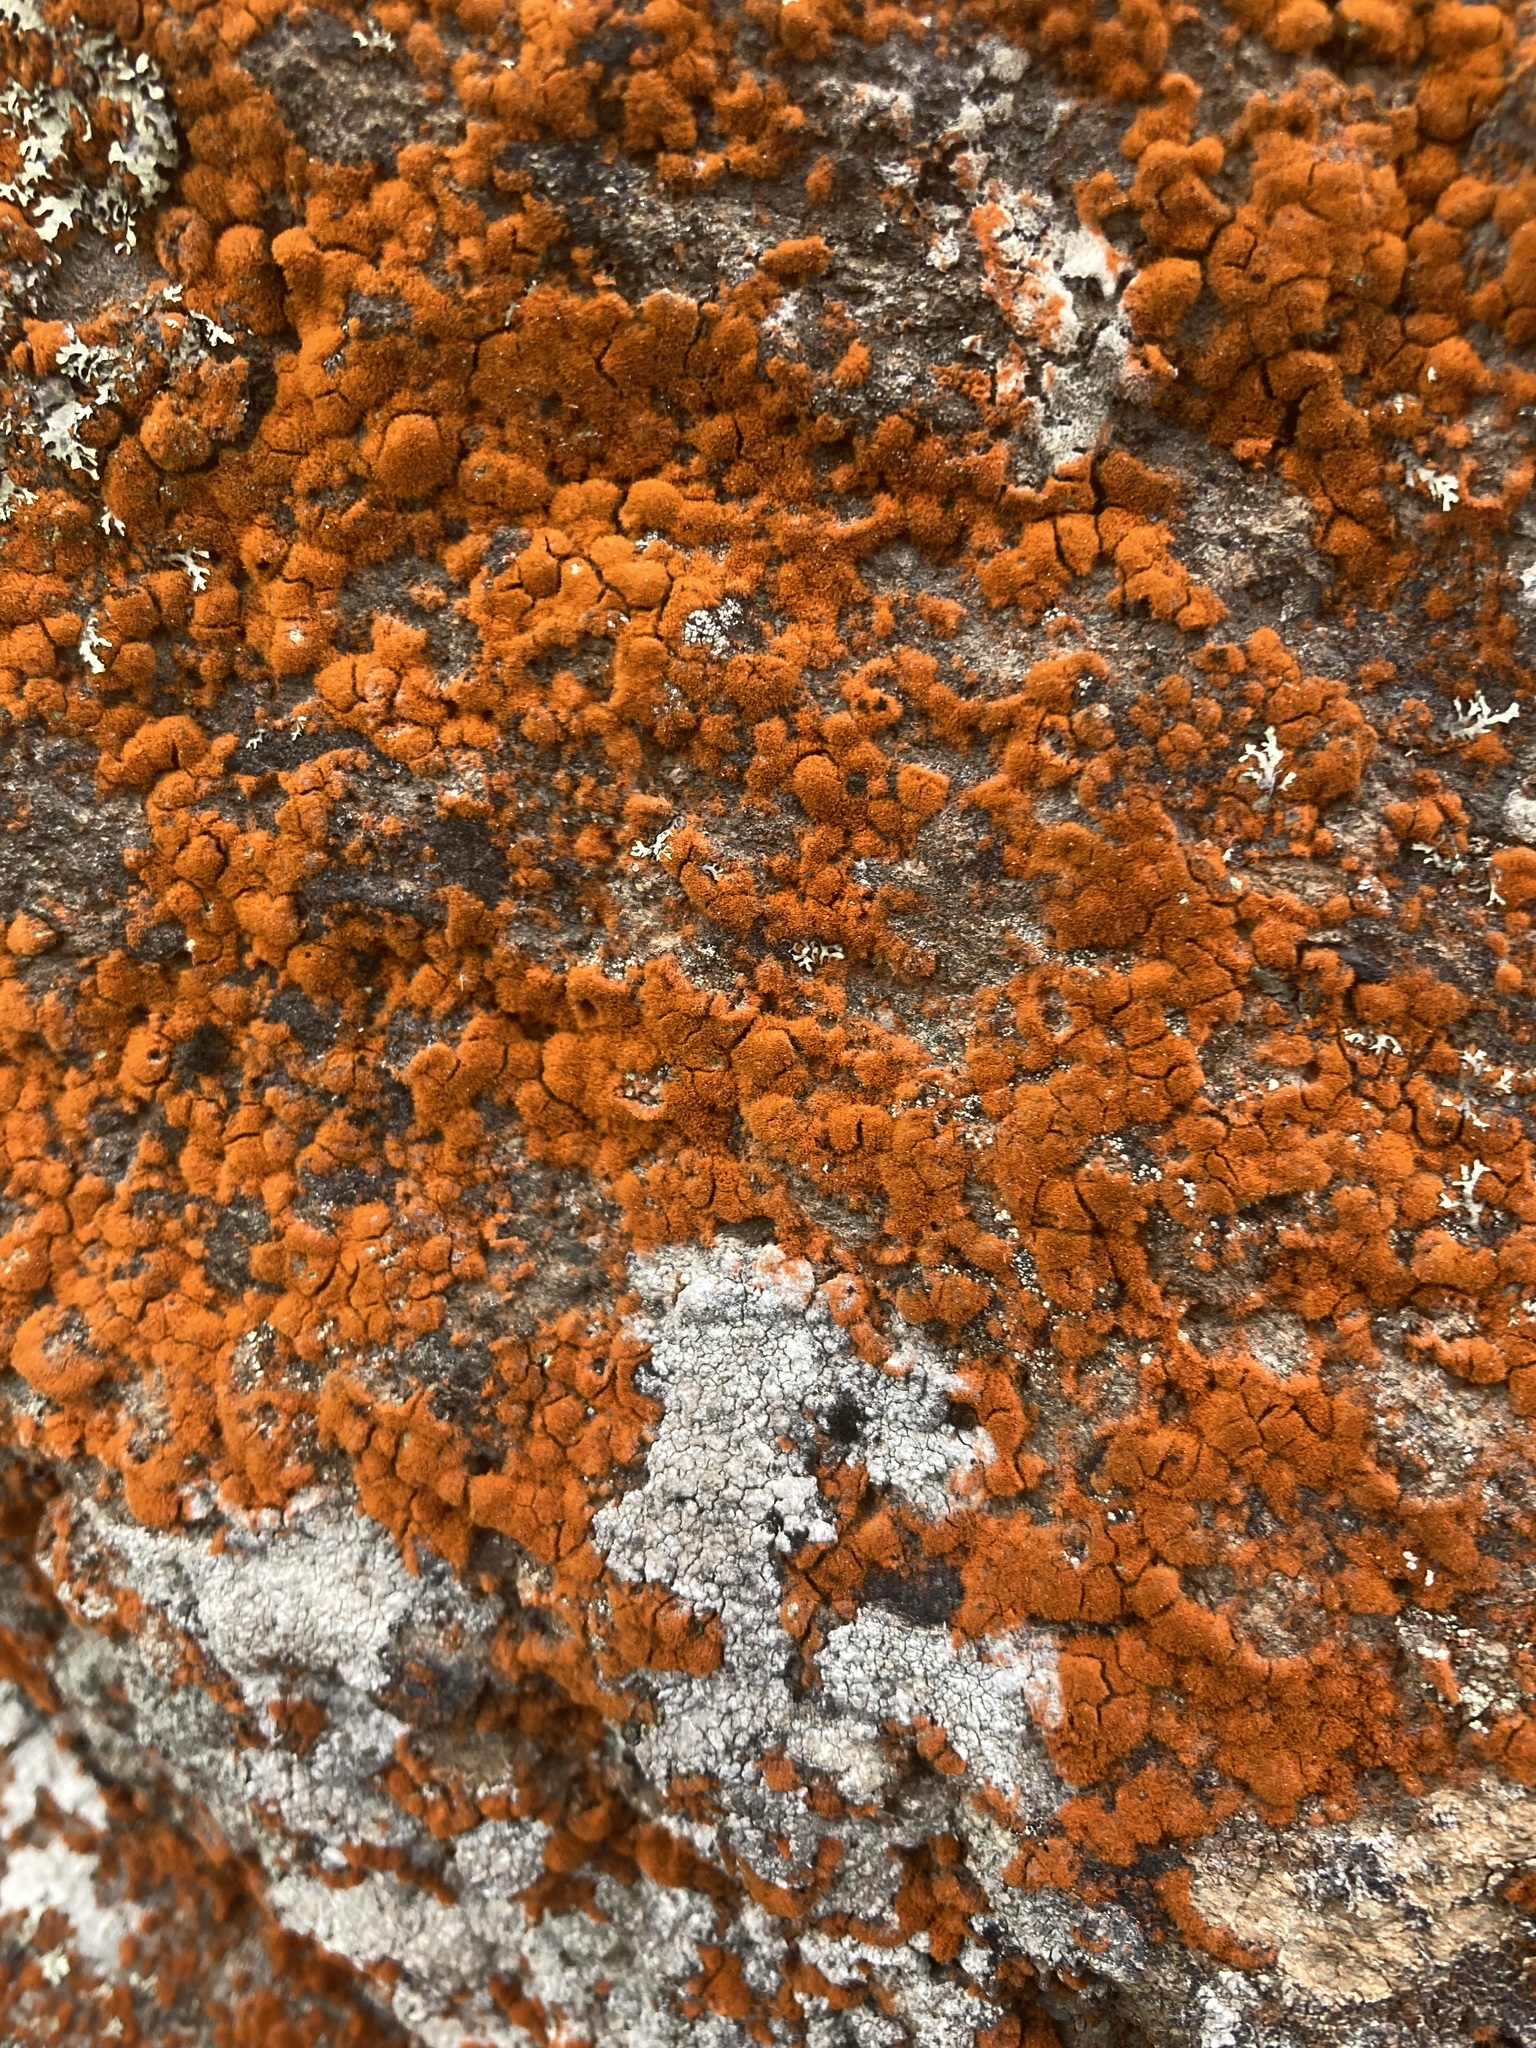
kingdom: Plantae
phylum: Chlorophyta
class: Ulvophyceae
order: Trentepohliales
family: Trentepohliaceae
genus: Trentepohlia
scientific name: Trentepohlia aurea
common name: Orange rock hair
